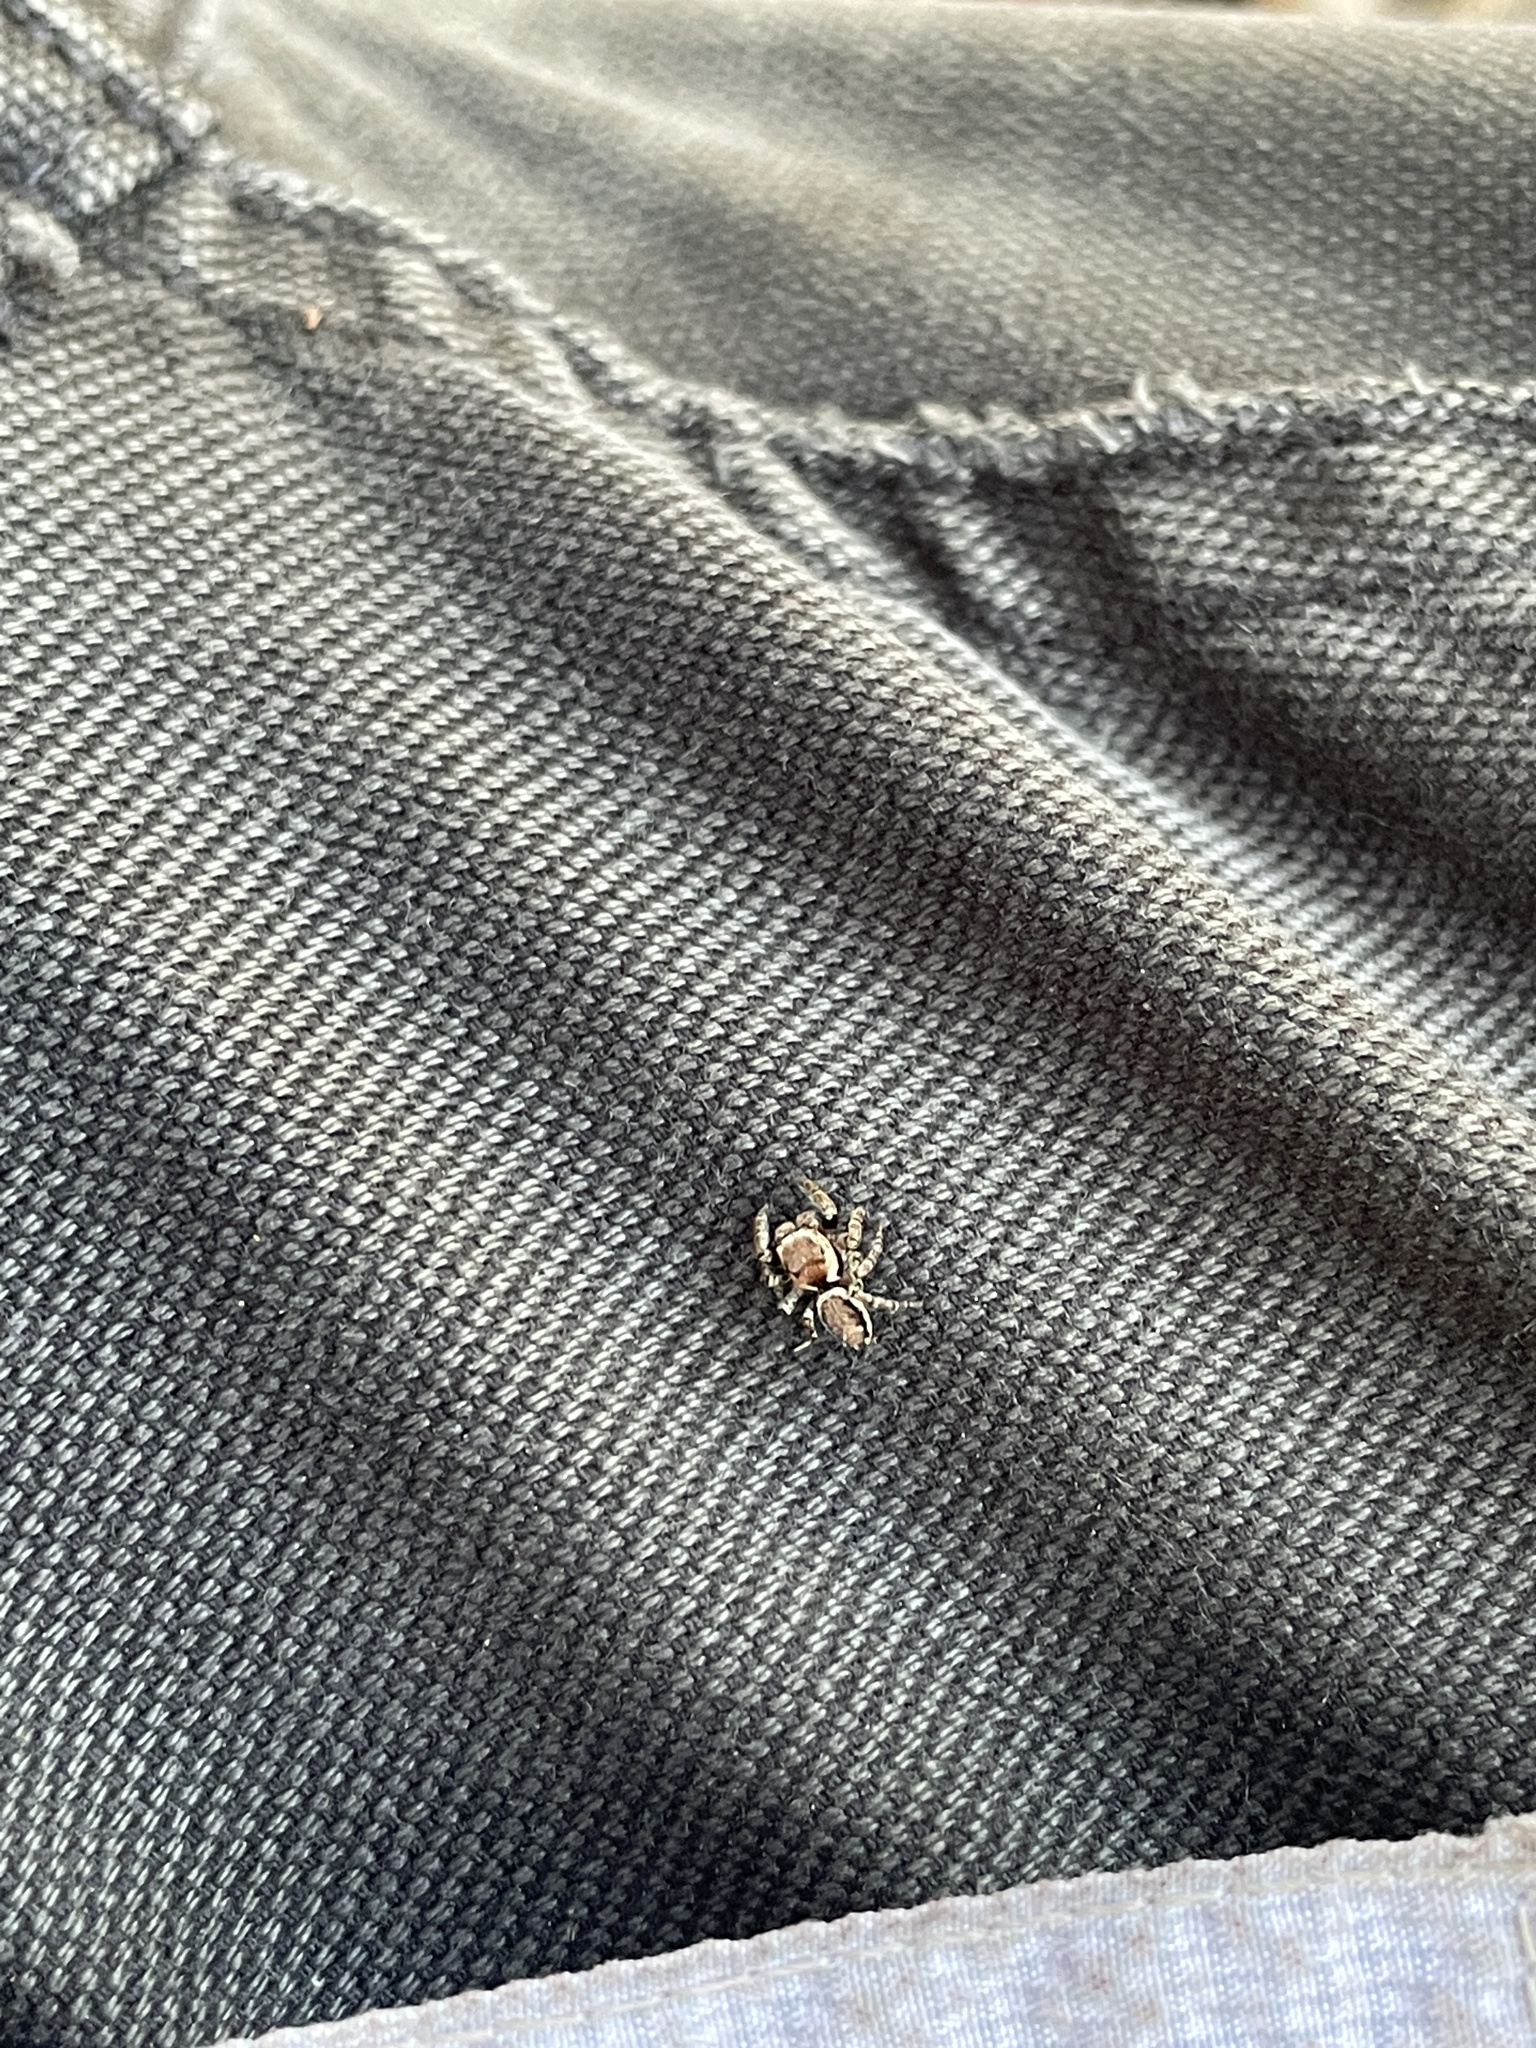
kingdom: Animalia
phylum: Arthropoda
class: Arachnida
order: Araneae
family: Salticidae
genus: Evarcha
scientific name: Evarcha proszynskii
